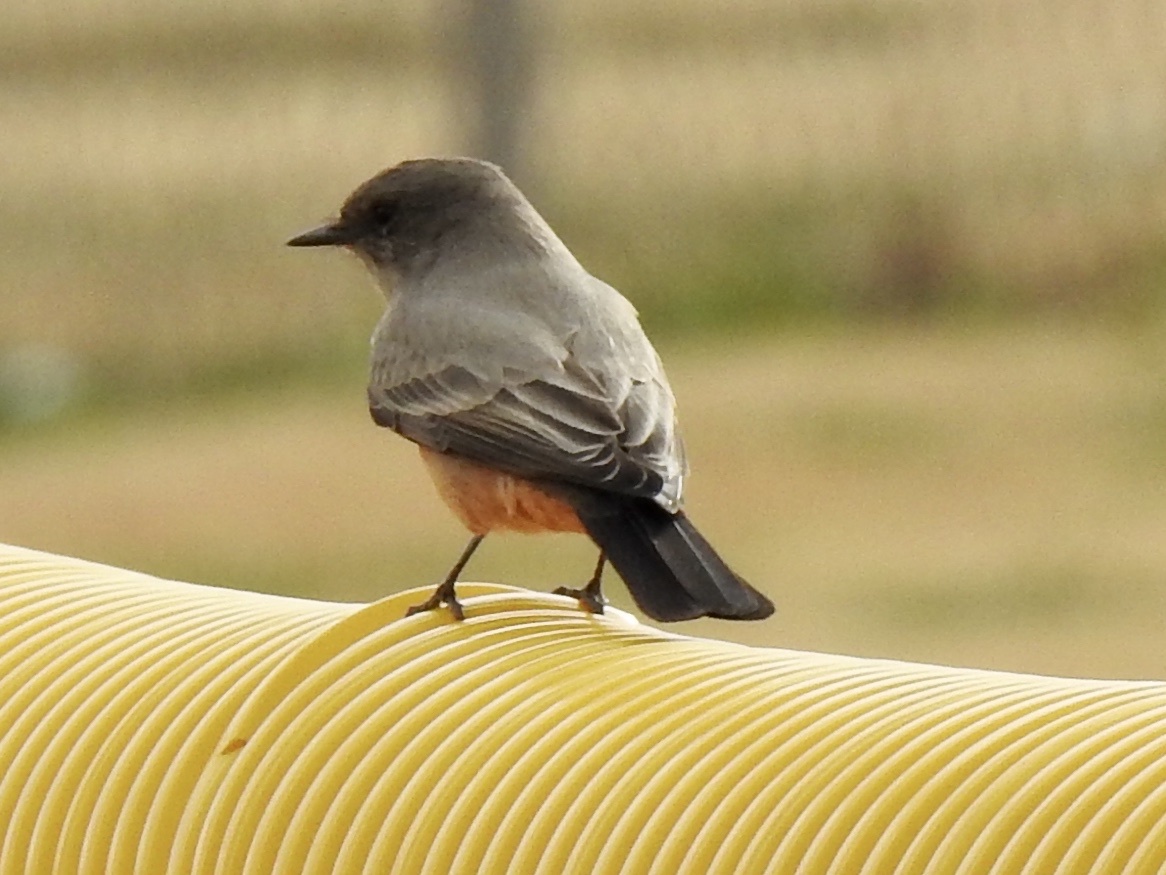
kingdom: Animalia
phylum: Chordata
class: Aves
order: Passeriformes
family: Tyrannidae
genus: Sayornis
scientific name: Sayornis saya
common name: Say's phoebe
